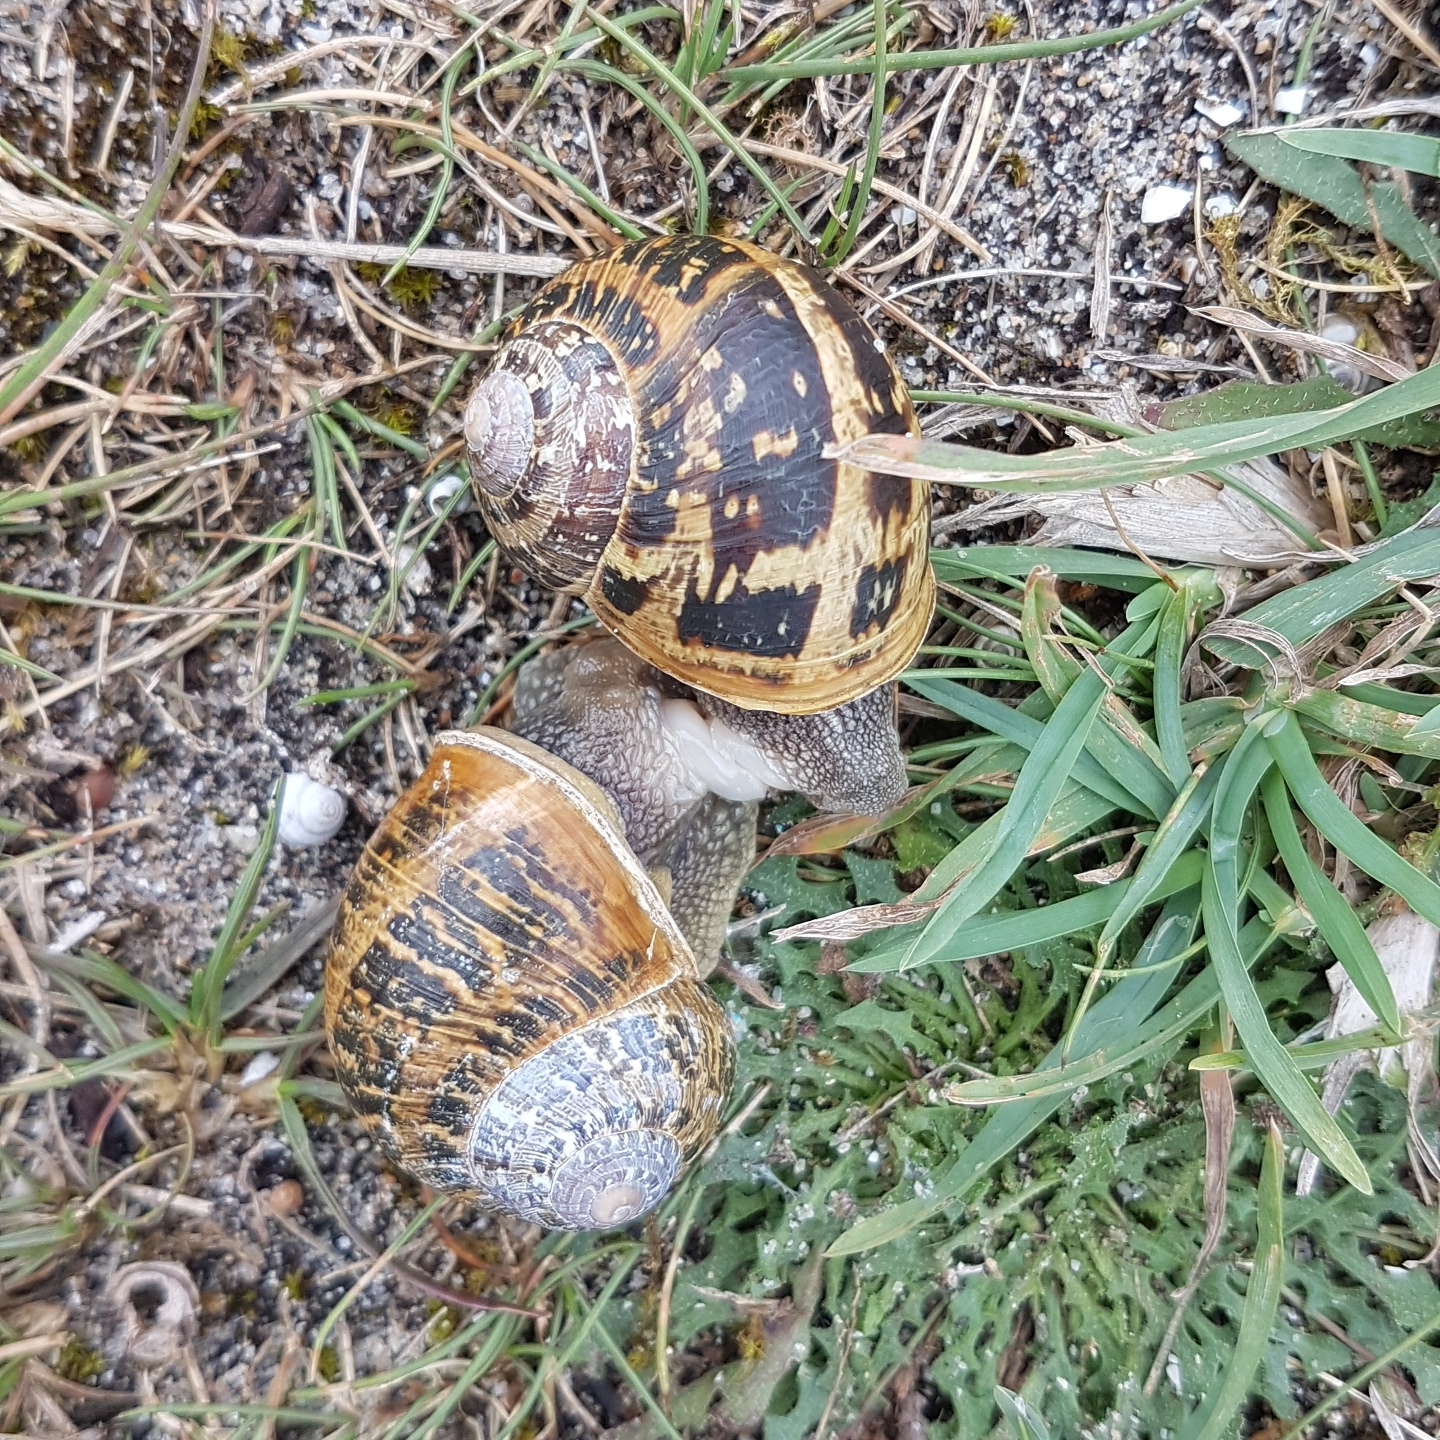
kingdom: Animalia
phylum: Mollusca
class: Gastropoda
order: Stylommatophora
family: Helicidae
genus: Cornu
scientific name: Cornu aspersum
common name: Brown garden snail
